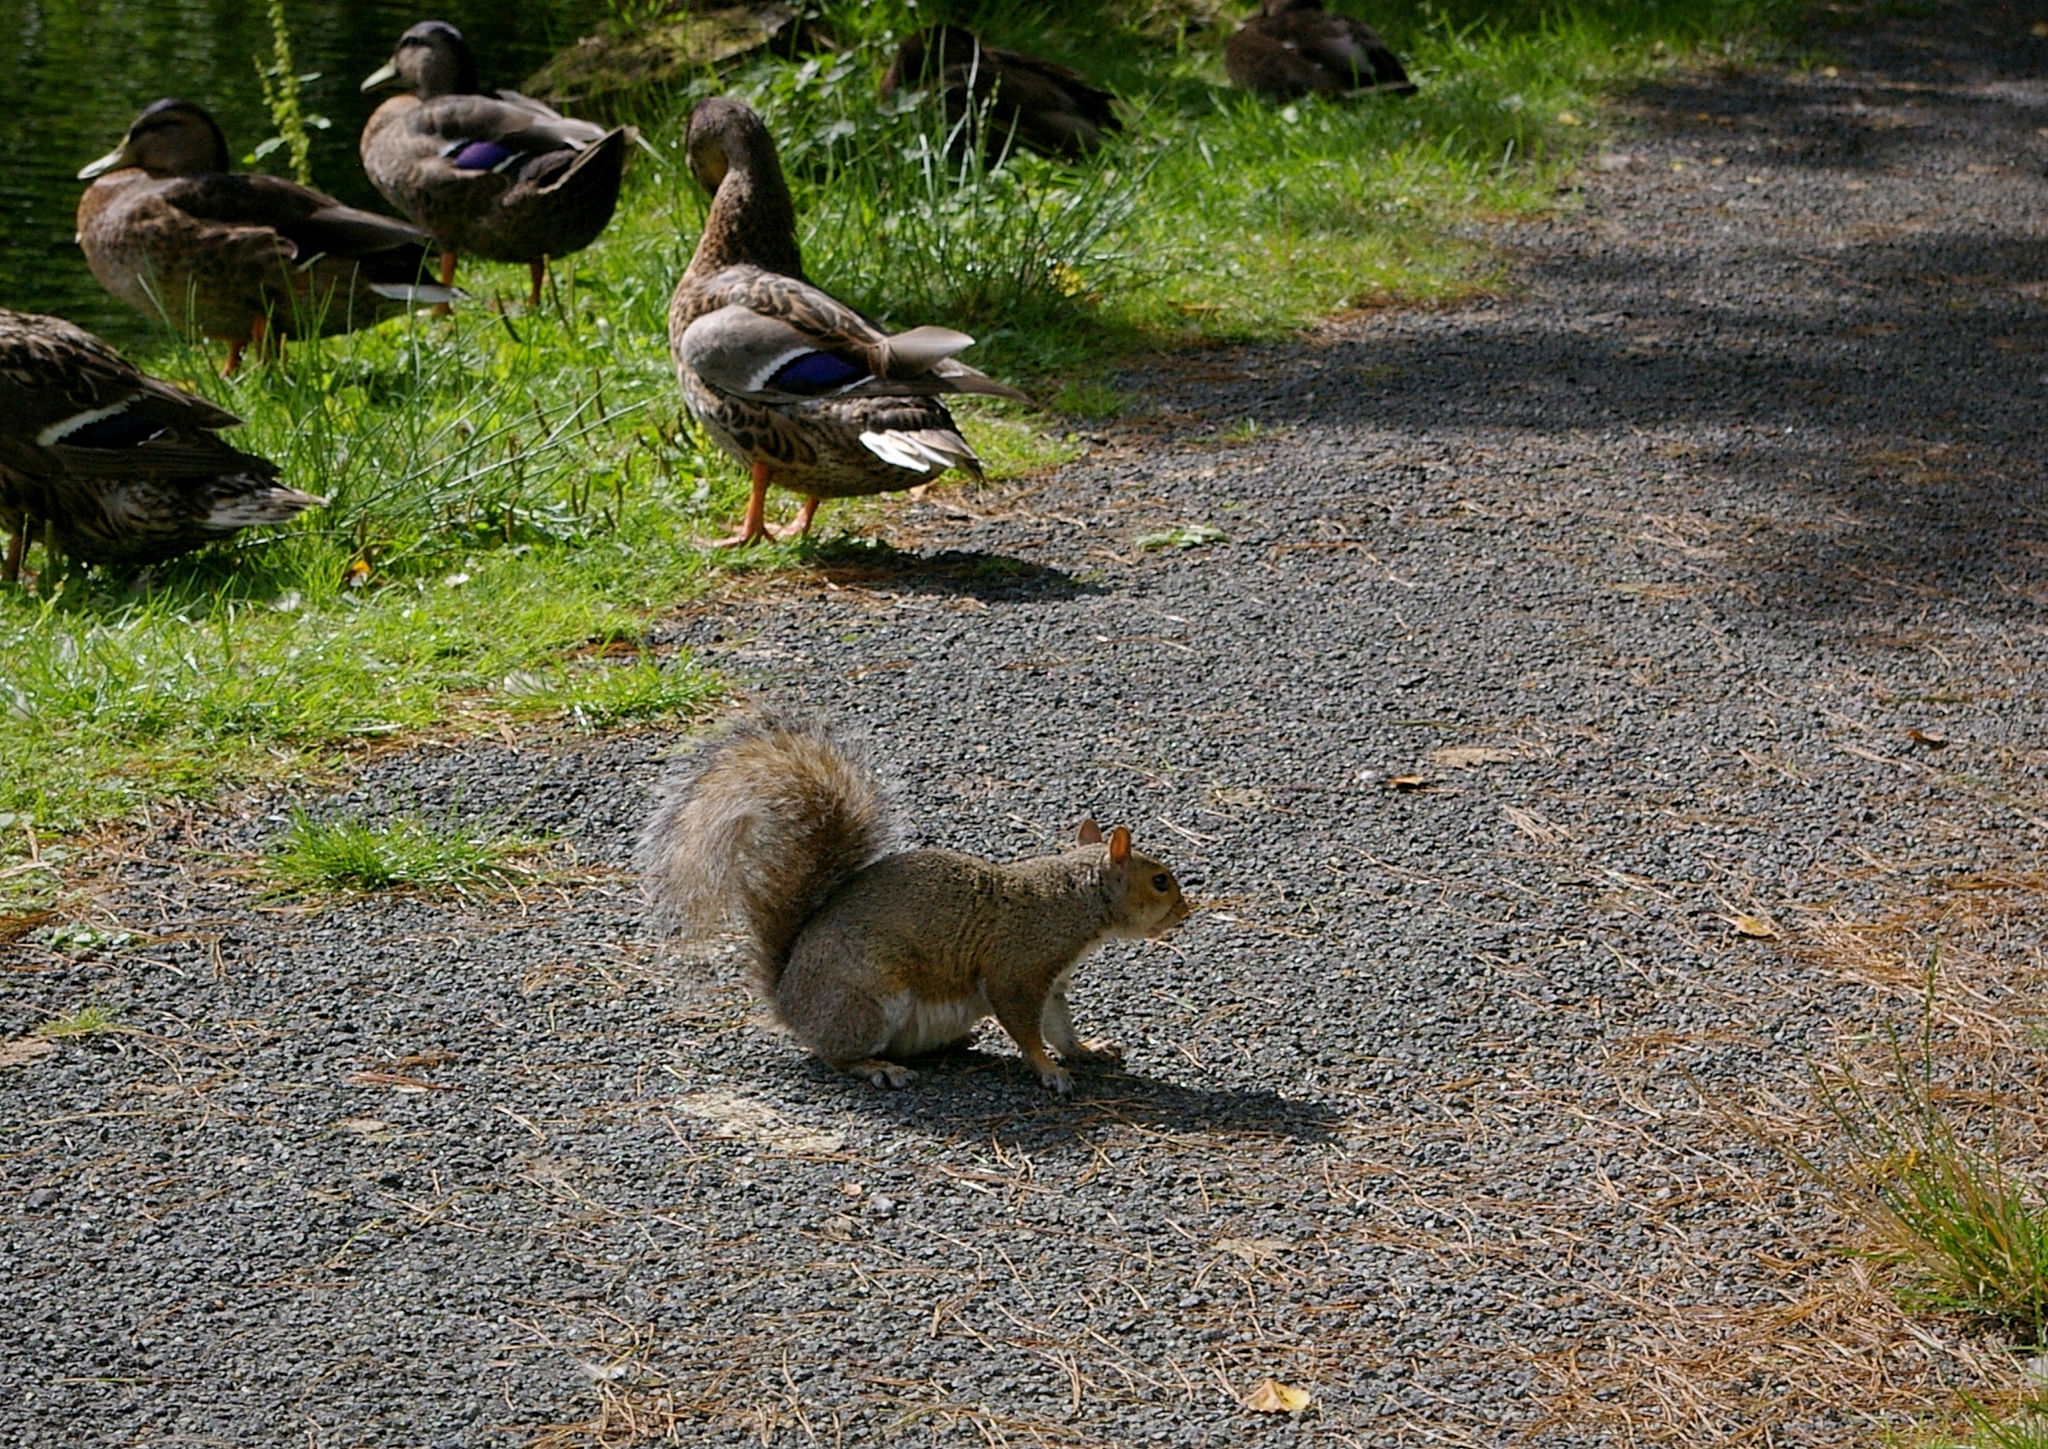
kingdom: Animalia
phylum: Chordata
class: Mammalia
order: Rodentia
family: Sciuridae
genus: Sciurus
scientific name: Sciurus carolinensis
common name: Eastern gray squirrel
